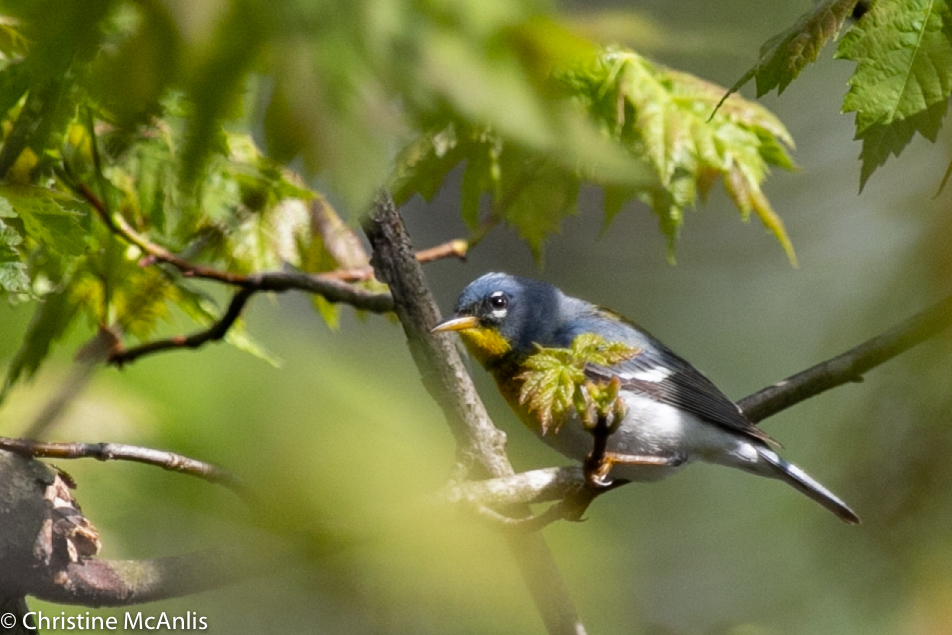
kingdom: Animalia
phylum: Chordata
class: Aves
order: Passeriformes
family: Parulidae
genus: Setophaga
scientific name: Setophaga americana
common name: Northern parula
